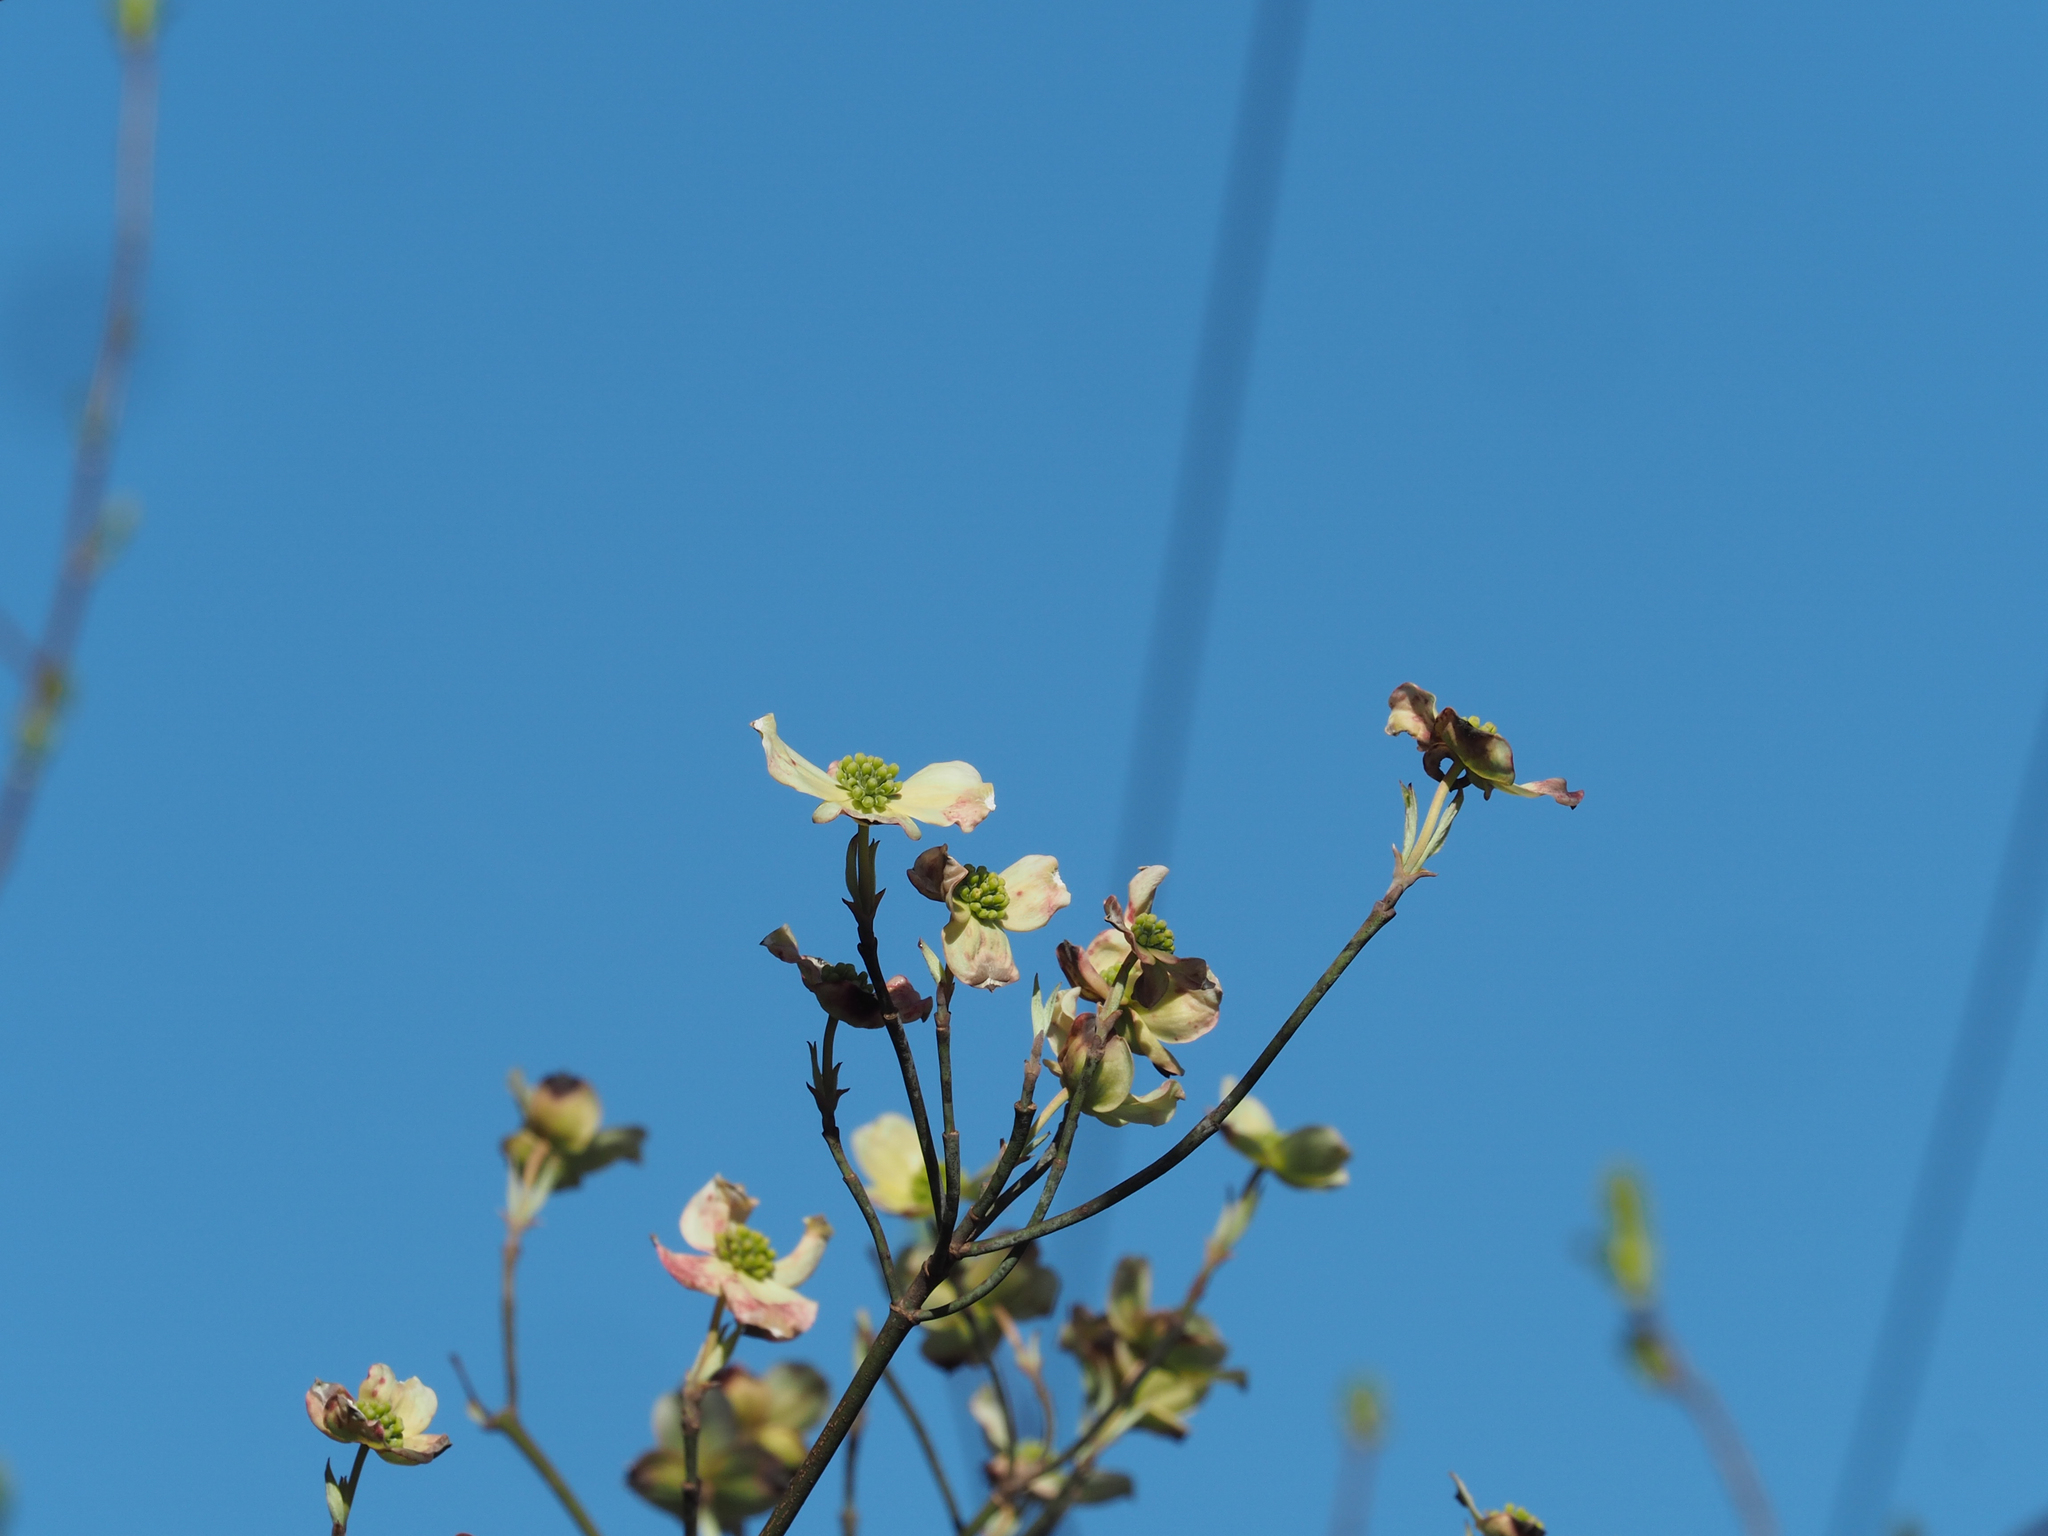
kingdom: Plantae
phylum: Tracheophyta
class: Magnoliopsida
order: Cornales
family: Cornaceae
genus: Cornus
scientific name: Cornus florida
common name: Flowering dogwood
